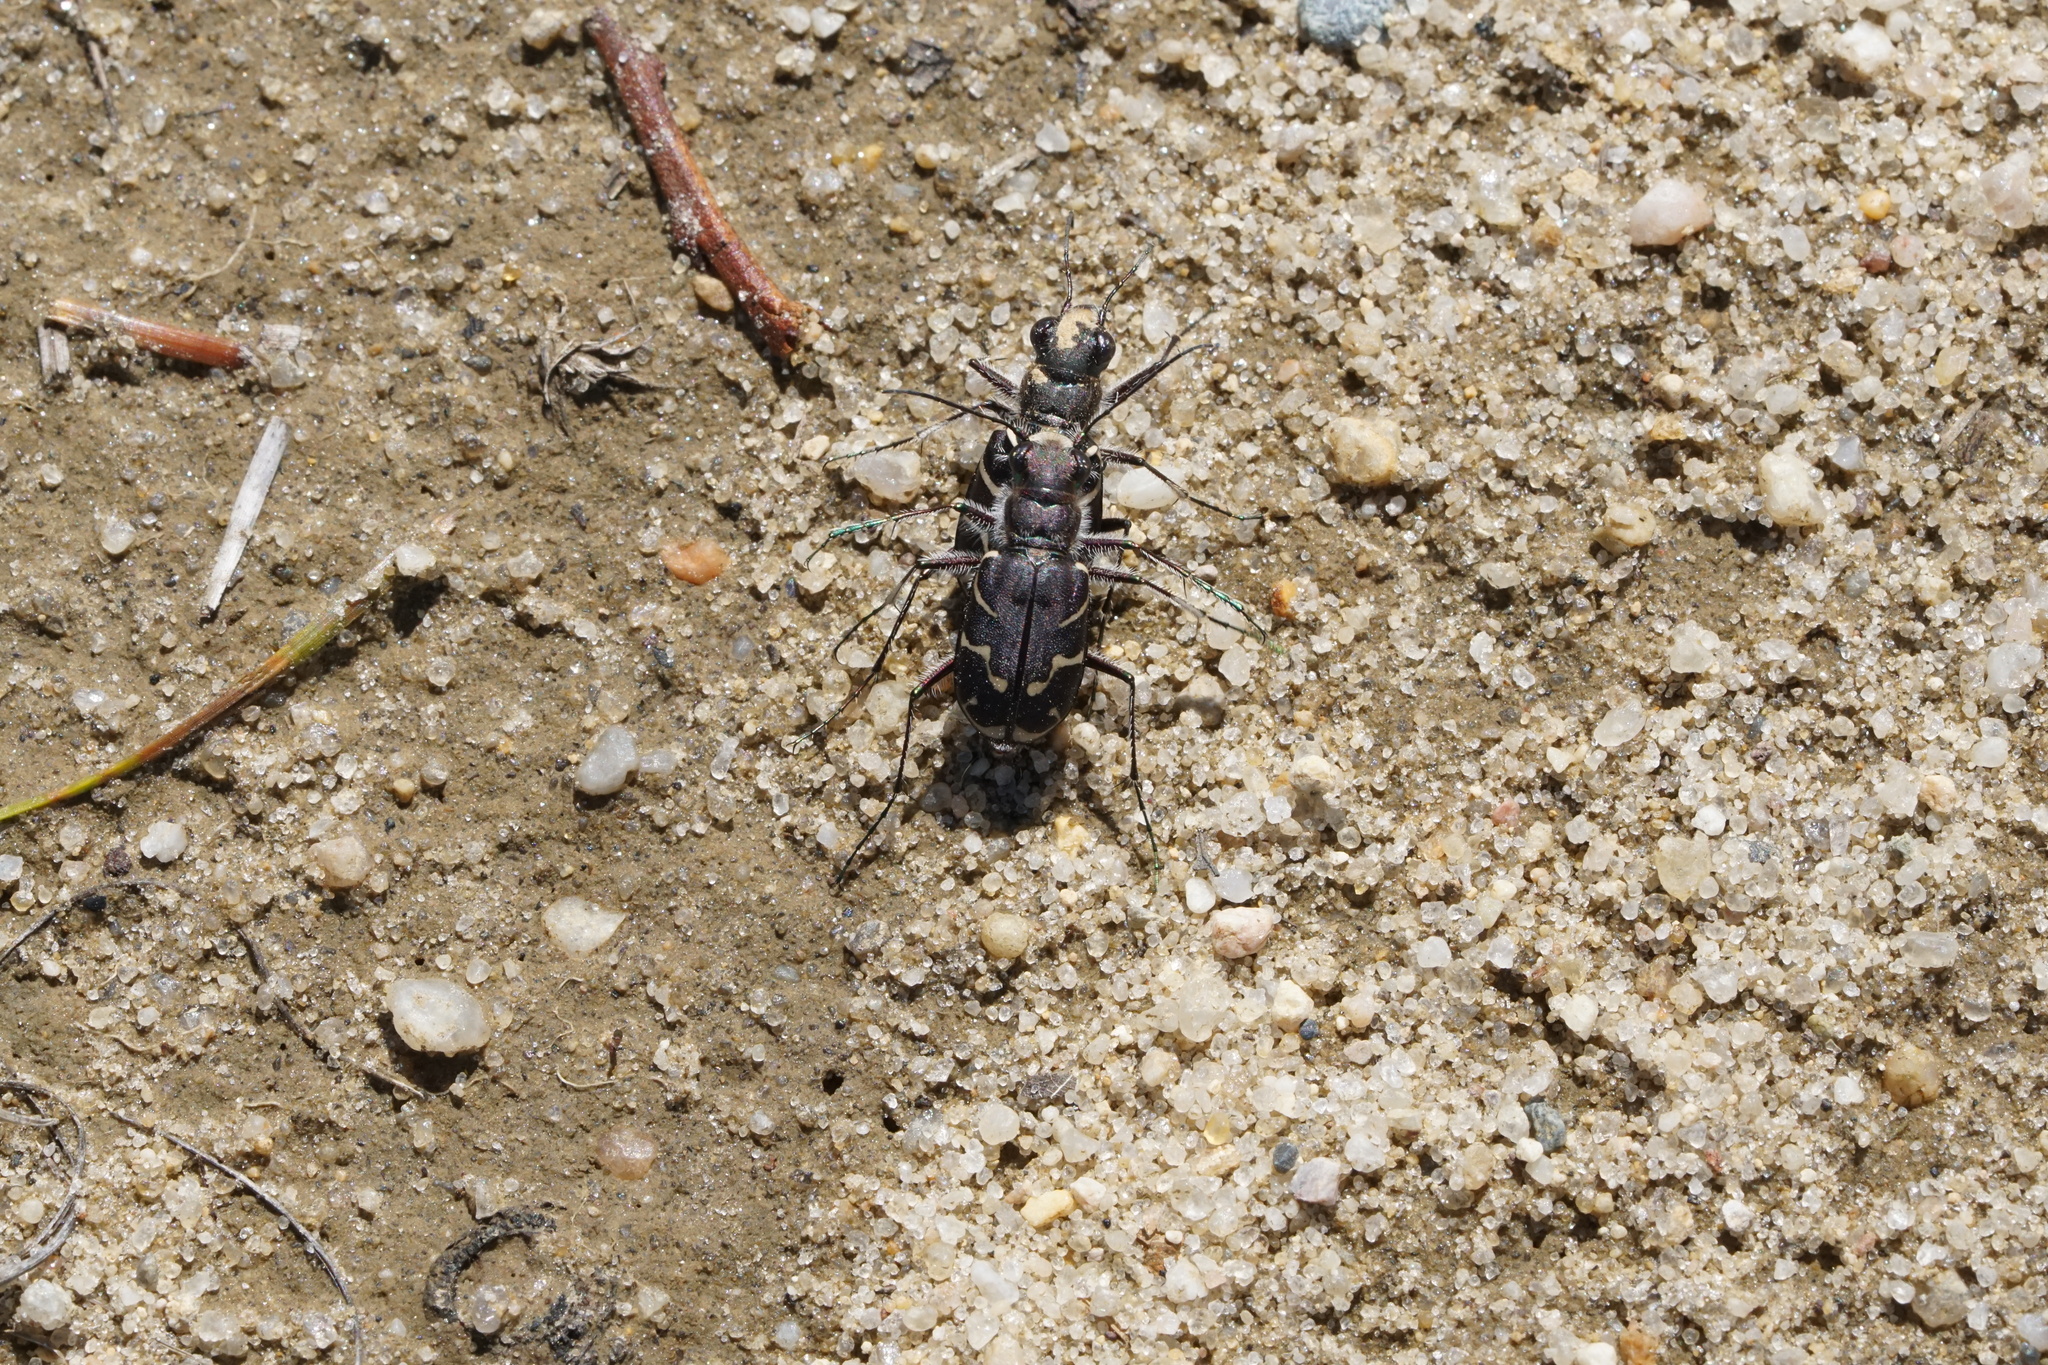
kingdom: Animalia
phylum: Arthropoda
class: Insecta
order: Coleoptera
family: Carabidae
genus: Cicindela
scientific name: Cicindela tranquebarica
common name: Oblique-lined tiger beetle
